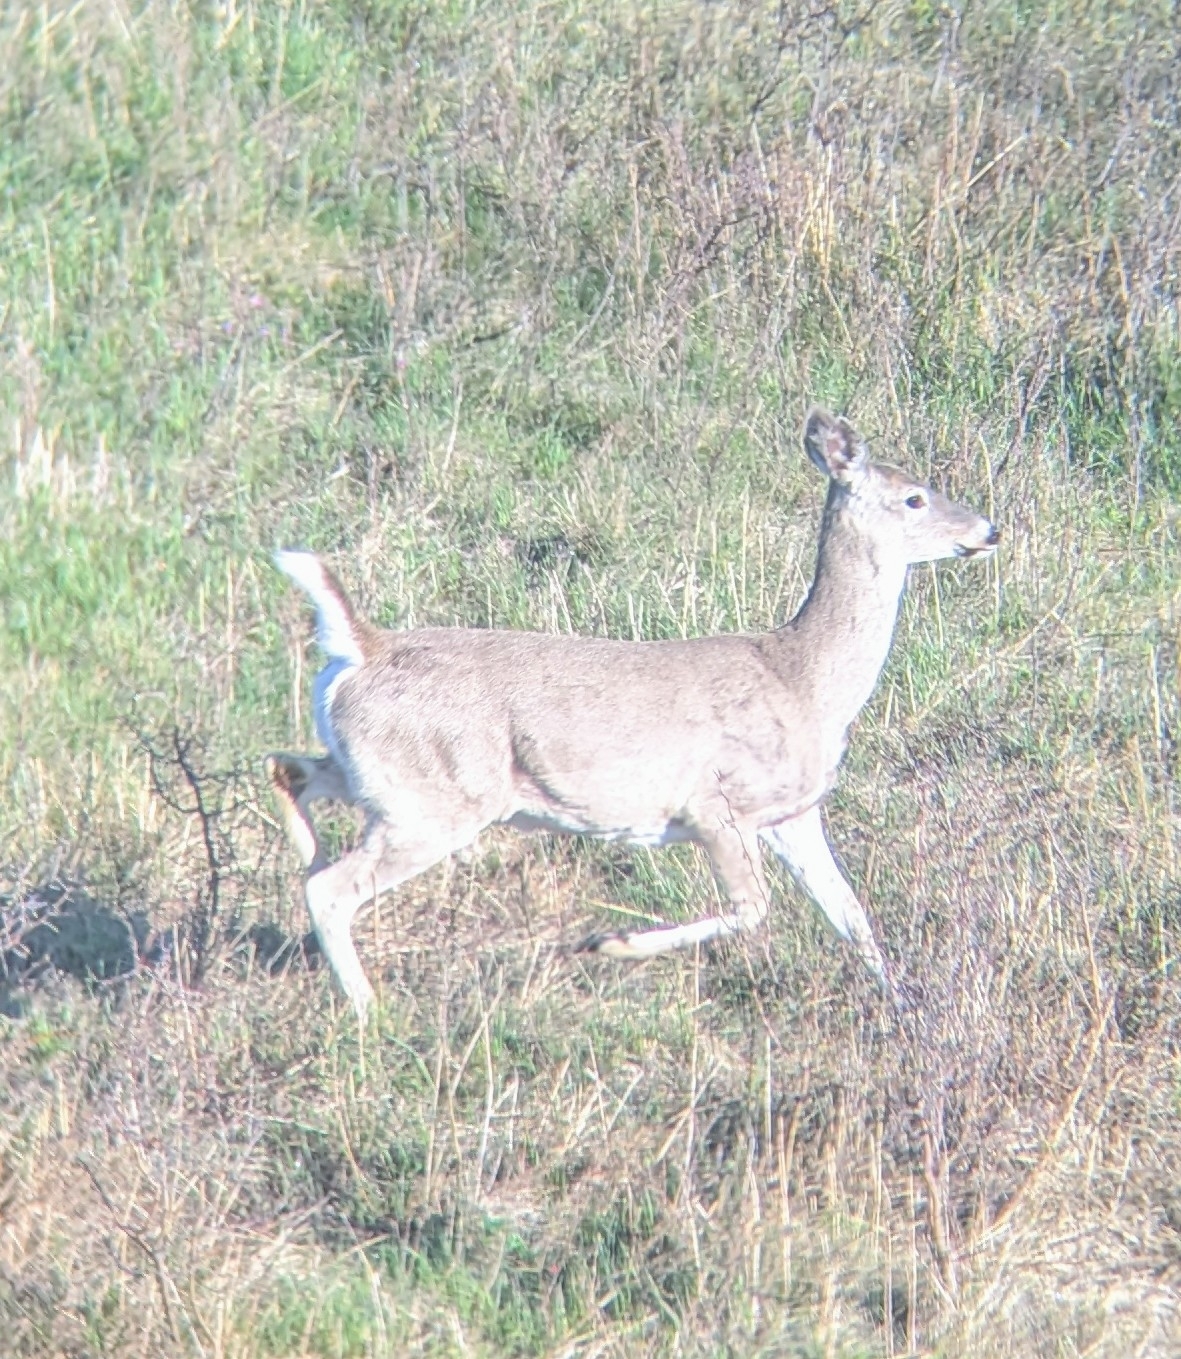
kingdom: Animalia
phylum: Chordata
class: Mammalia
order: Artiodactyla
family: Cervidae
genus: Odocoileus
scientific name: Odocoileus virginianus
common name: White-tailed deer
